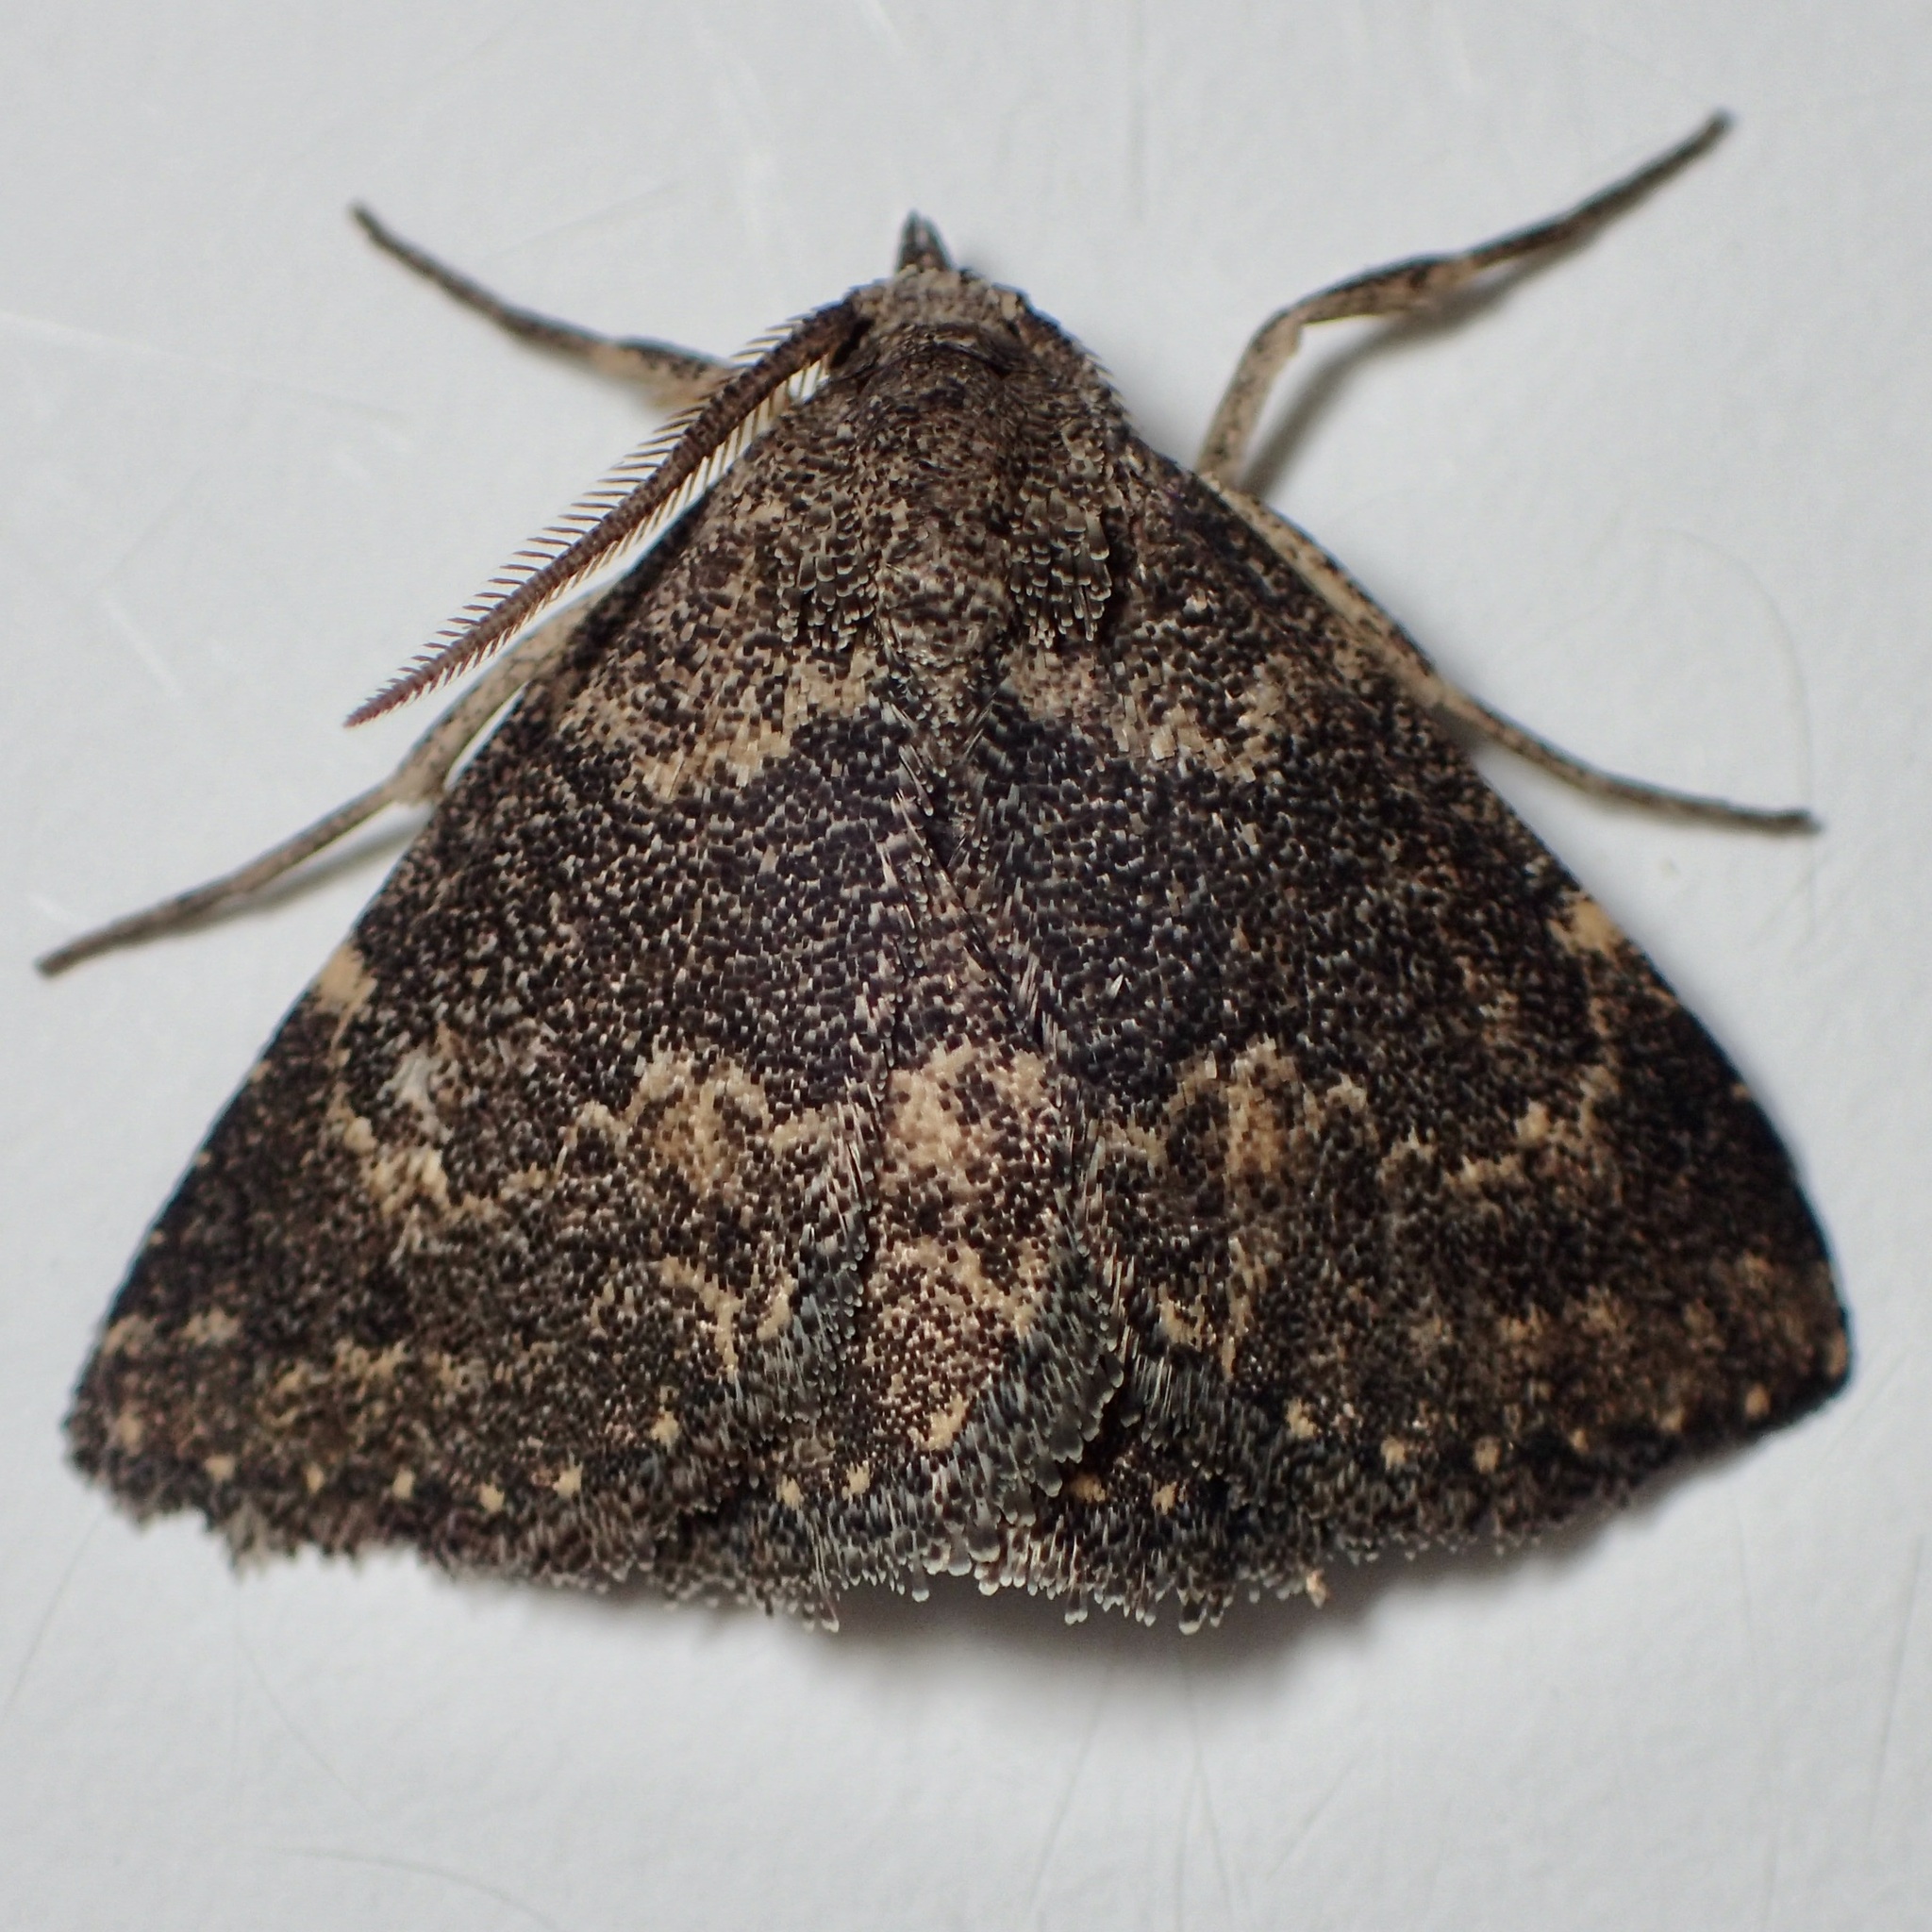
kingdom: Animalia
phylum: Arthropoda
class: Insecta
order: Lepidoptera
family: Erebidae
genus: Prosoparia
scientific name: Prosoparia perfuscaria
